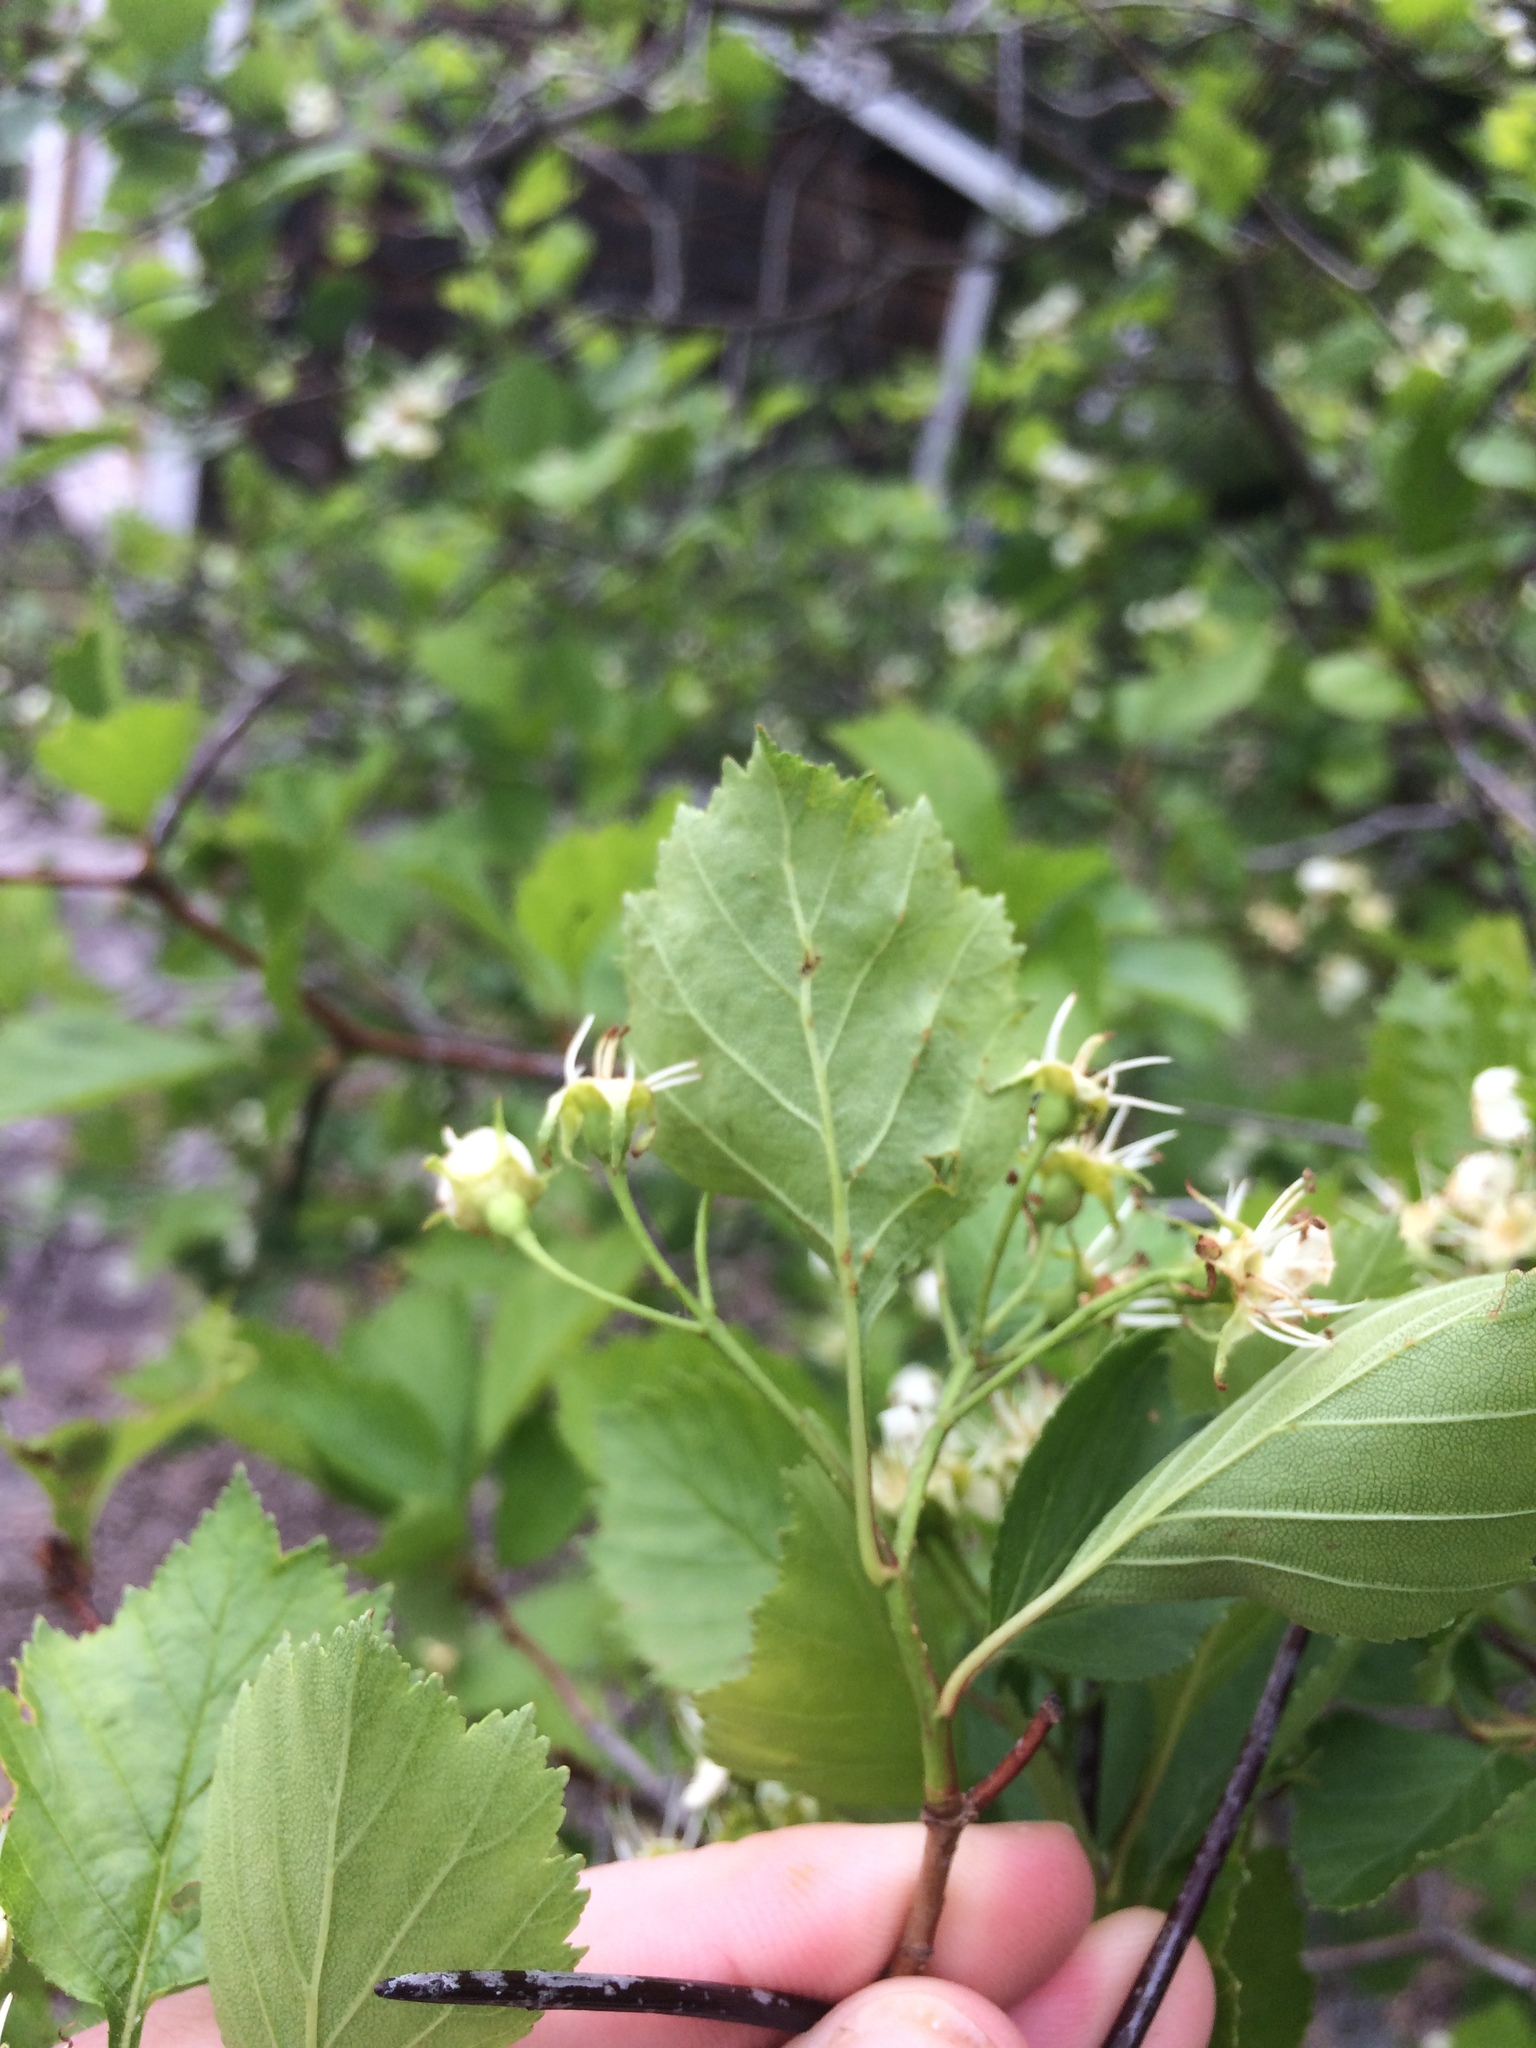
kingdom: Plantae
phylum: Tracheophyta
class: Magnoliopsida
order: Rosales
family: Rosaceae
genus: Crataegus
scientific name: Crataegus chrysocarpa
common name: Fire-berry hawthorn
